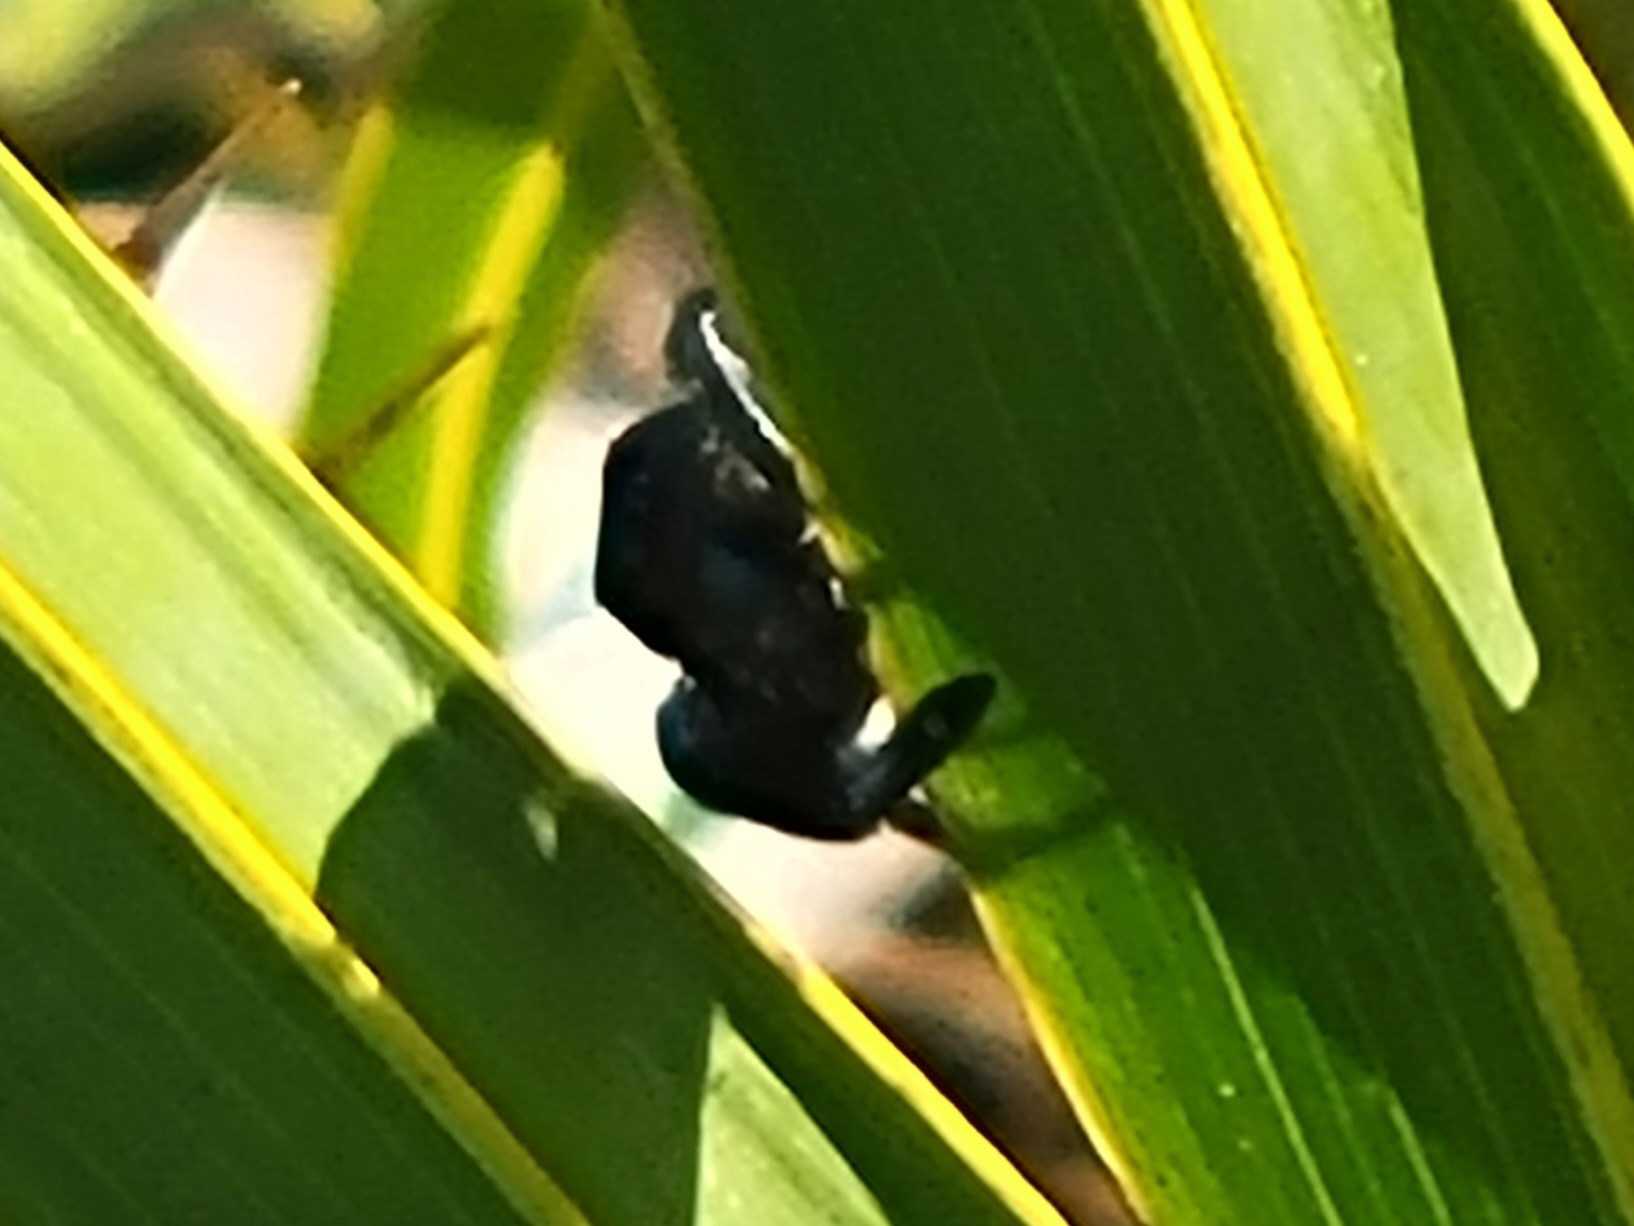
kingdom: Animalia
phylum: Arthropoda
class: Arachnida
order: Araneae
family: Salticidae
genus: Phidippus
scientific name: Phidippus regius
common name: Regal jumper
